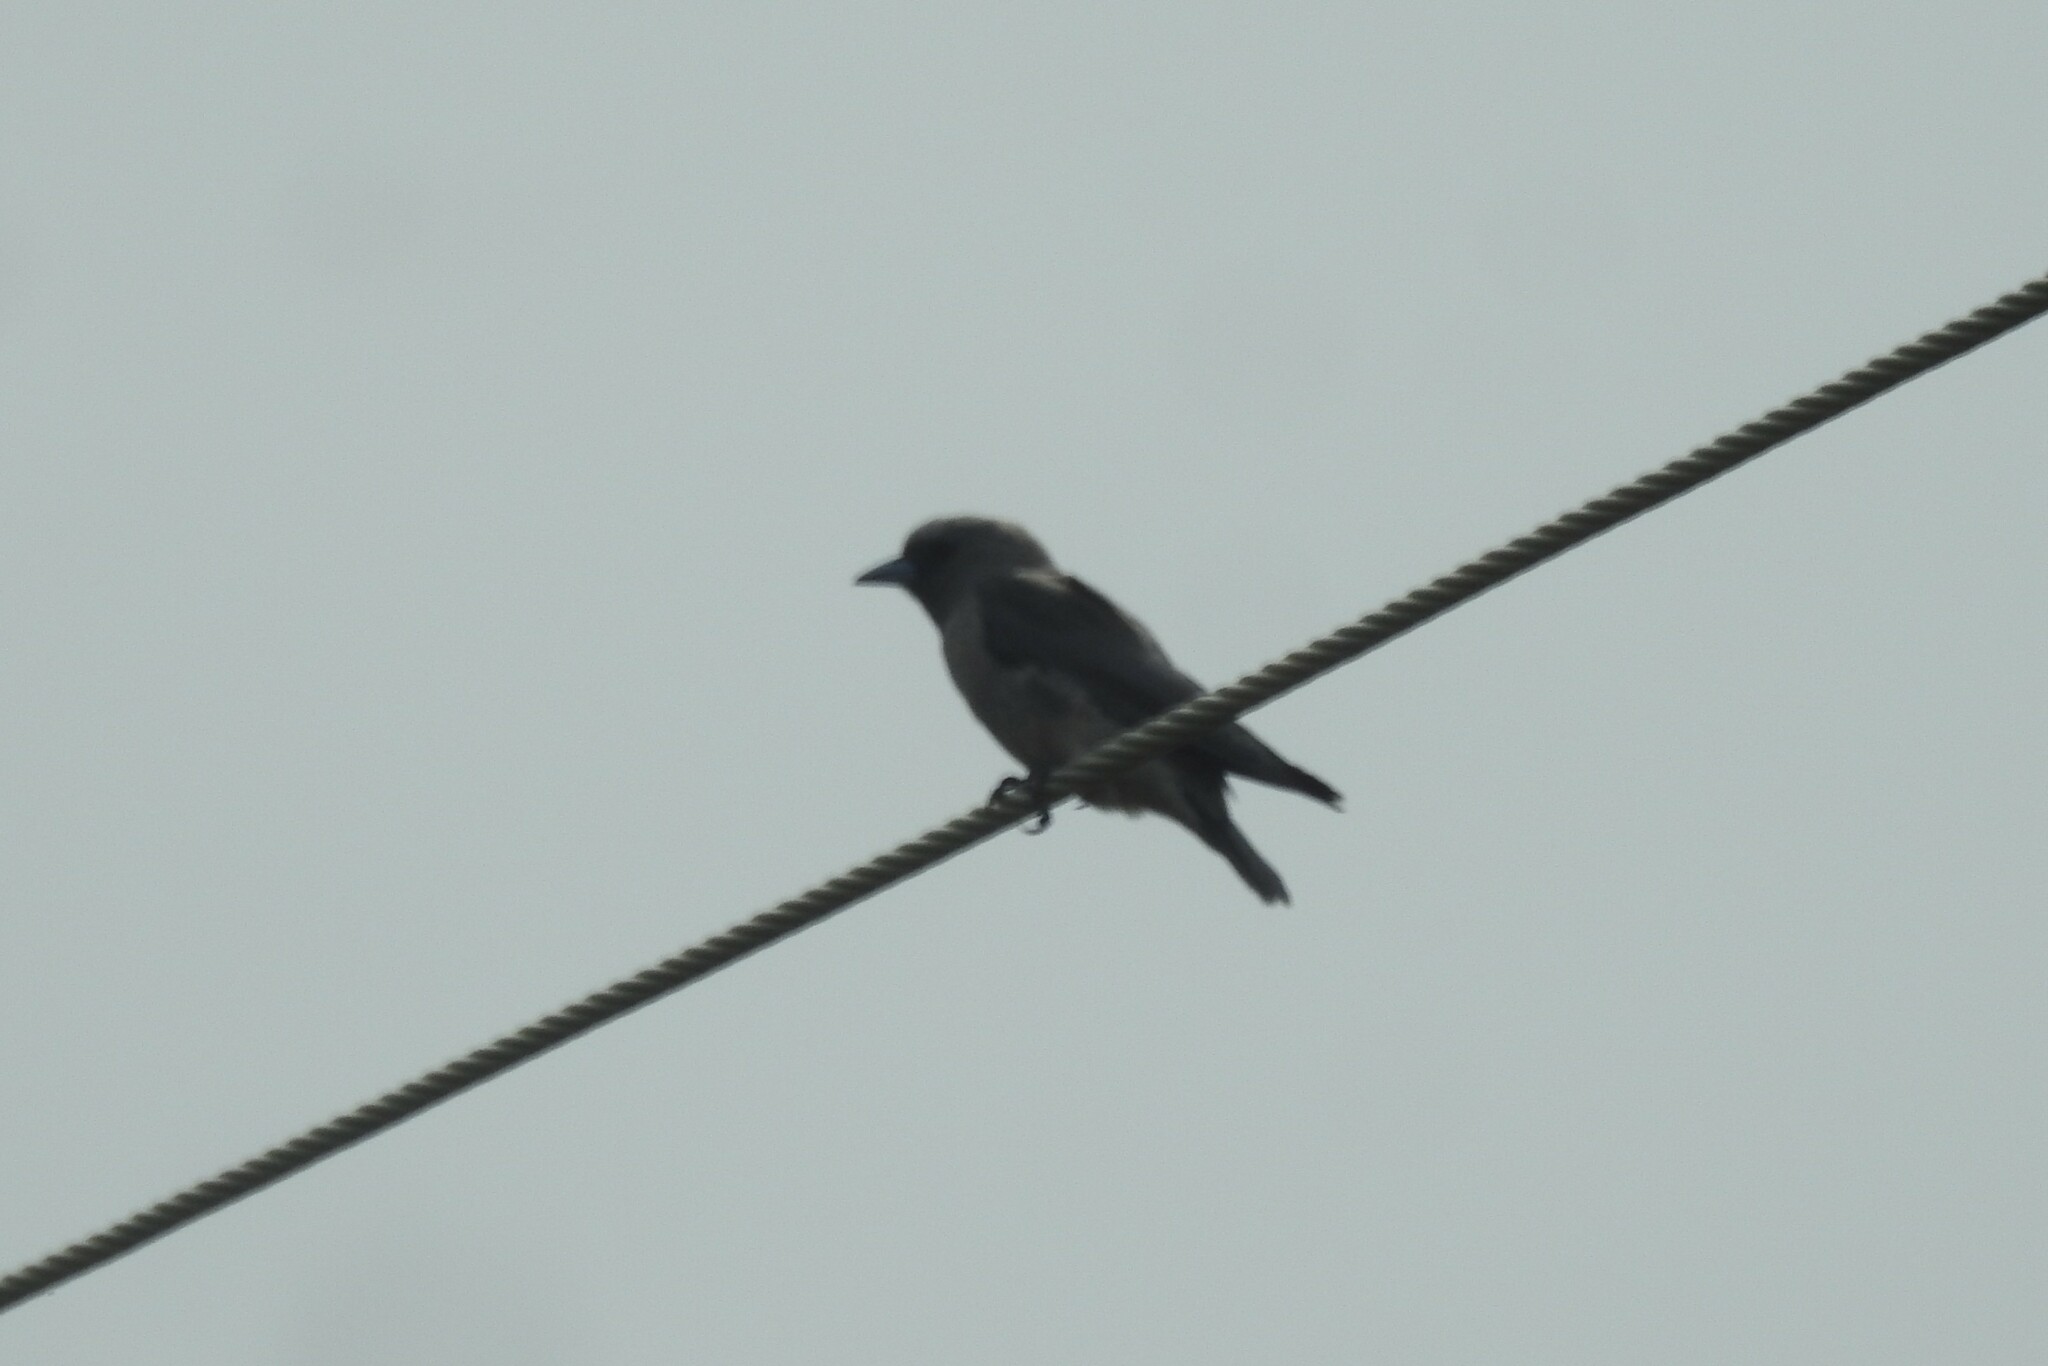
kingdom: Animalia
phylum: Chordata
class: Aves
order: Passeriformes
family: Artamidae
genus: Artamus
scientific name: Artamus fuscus
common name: Ashy woodswallow
